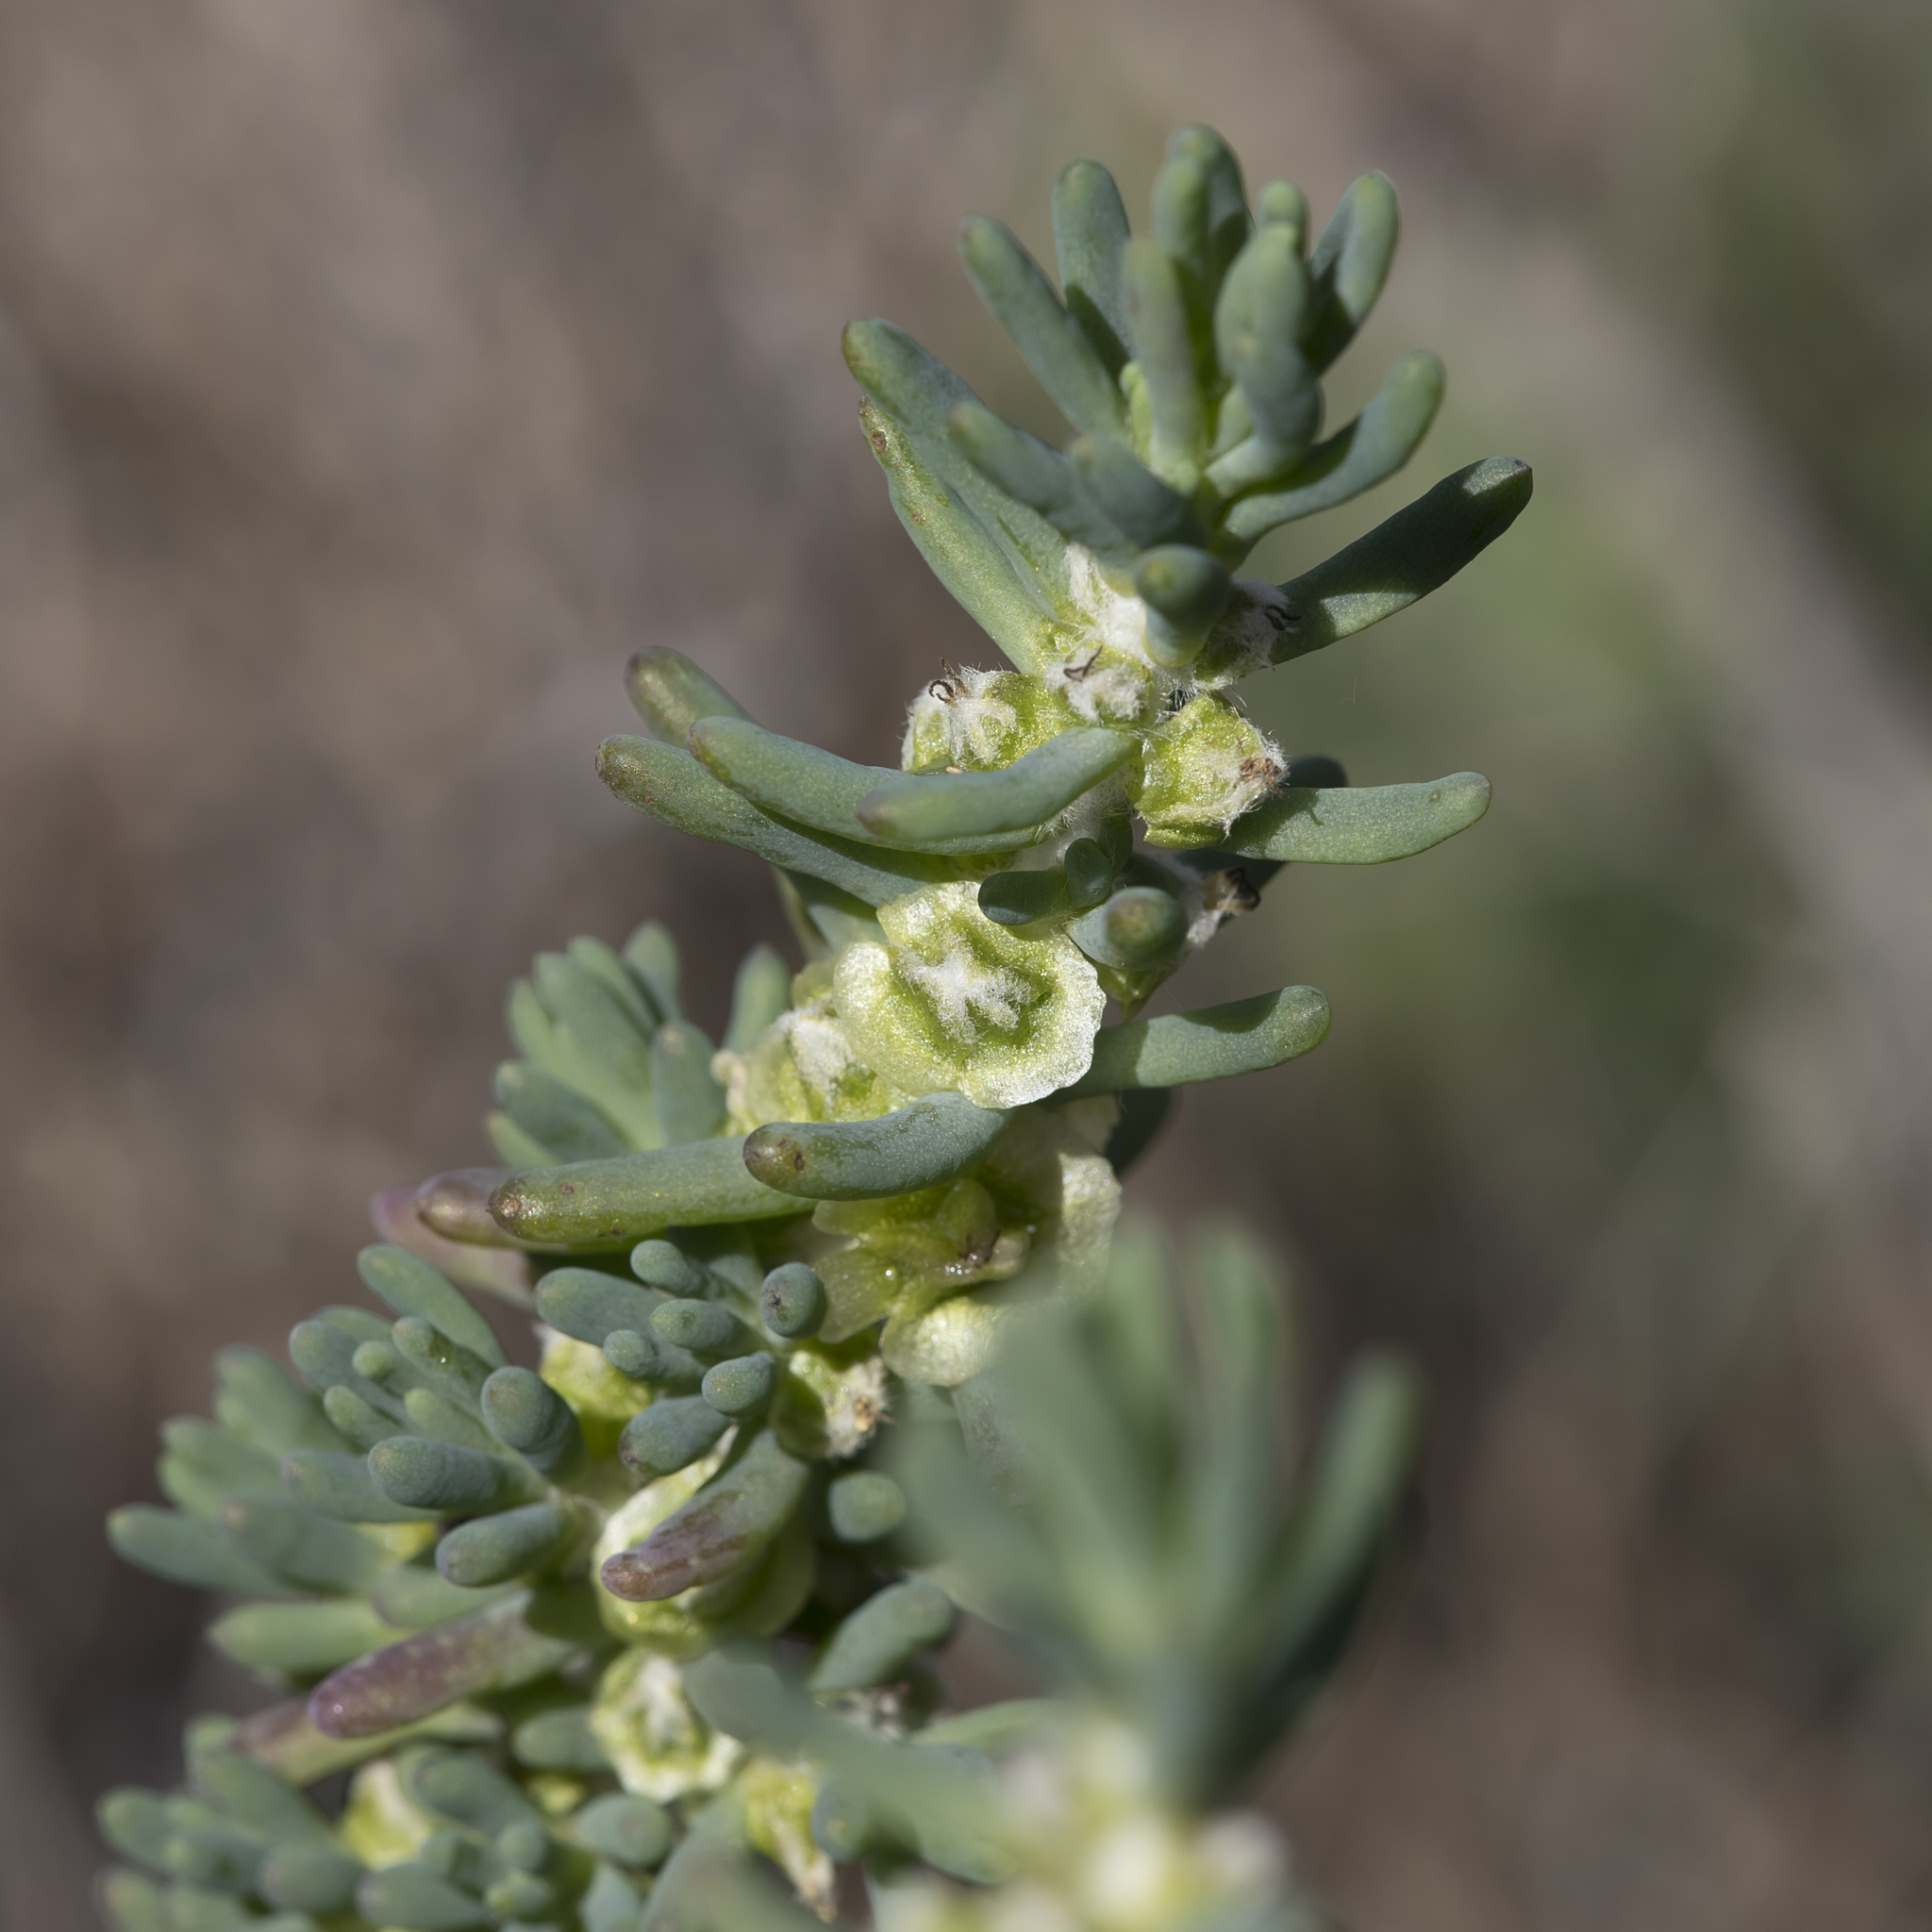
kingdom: Plantae
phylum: Tracheophyta
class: Magnoliopsida
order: Caryophyllales
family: Amaranthaceae
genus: Maireana
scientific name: Maireana pentatropis
